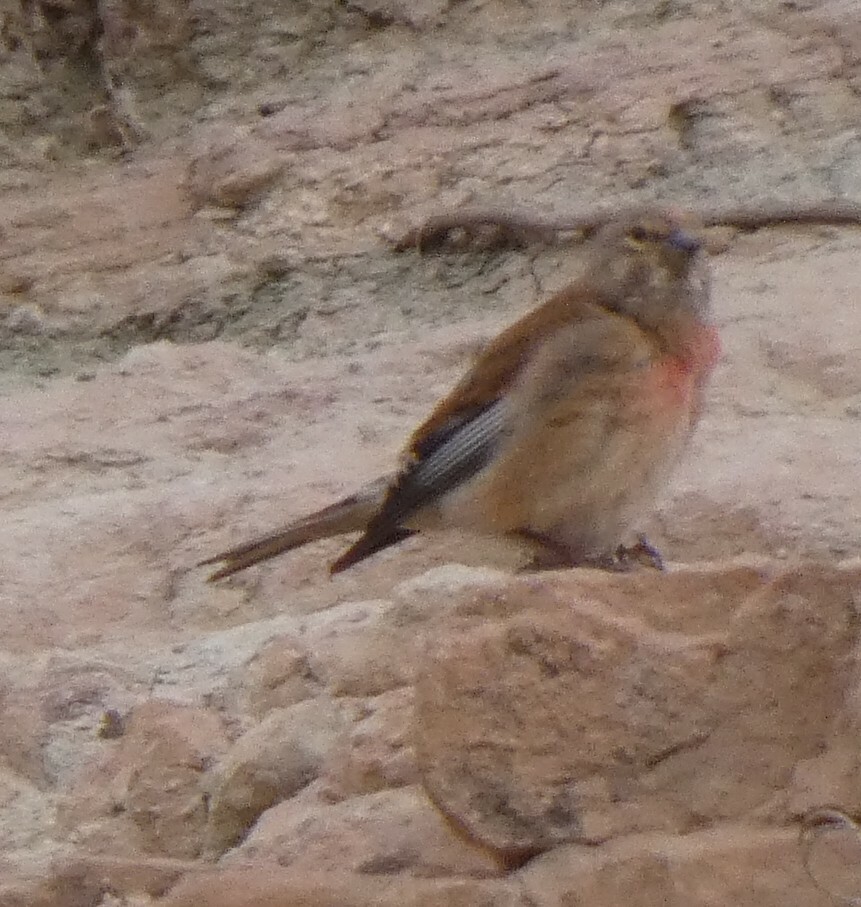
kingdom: Animalia
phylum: Chordata
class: Aves
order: Passeriformes
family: Fringillidae
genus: Linaria
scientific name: Linaria cannabina
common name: Common linnet
